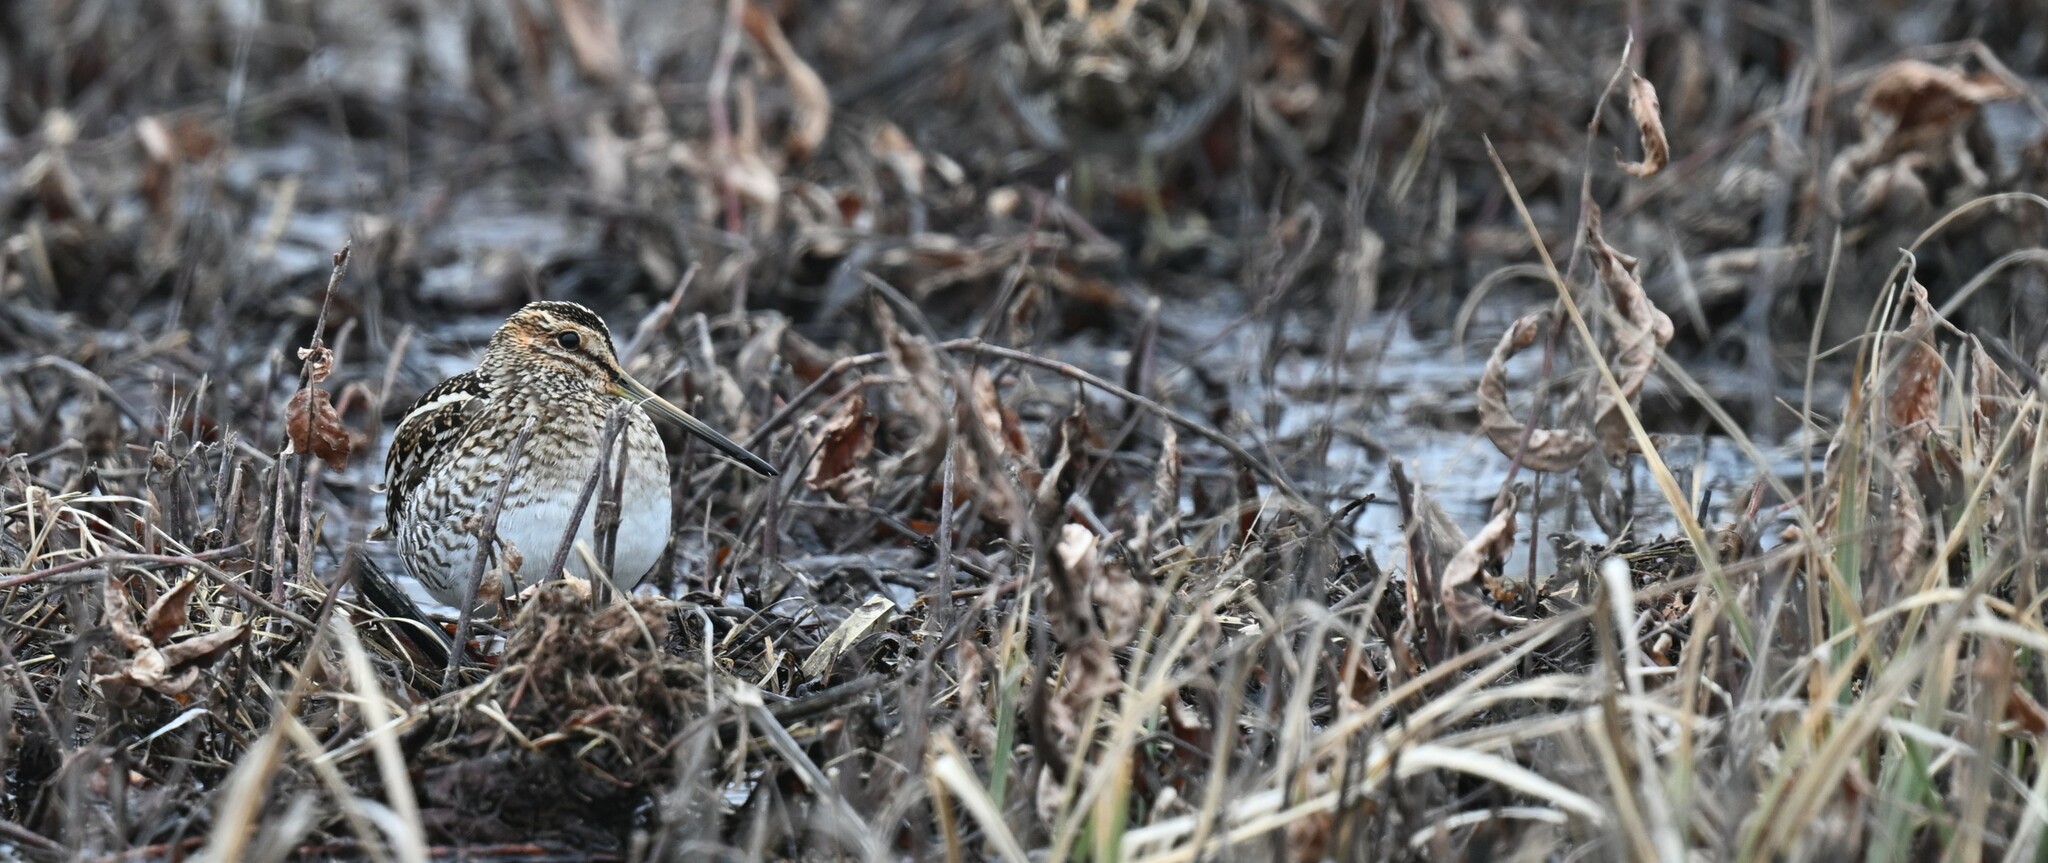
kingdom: Animalia
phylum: Chordata
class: Aves
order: Charadriiformes
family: Scolopacidae
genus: Gallinago
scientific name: Gallinago delicata
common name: Wilson's snipe
